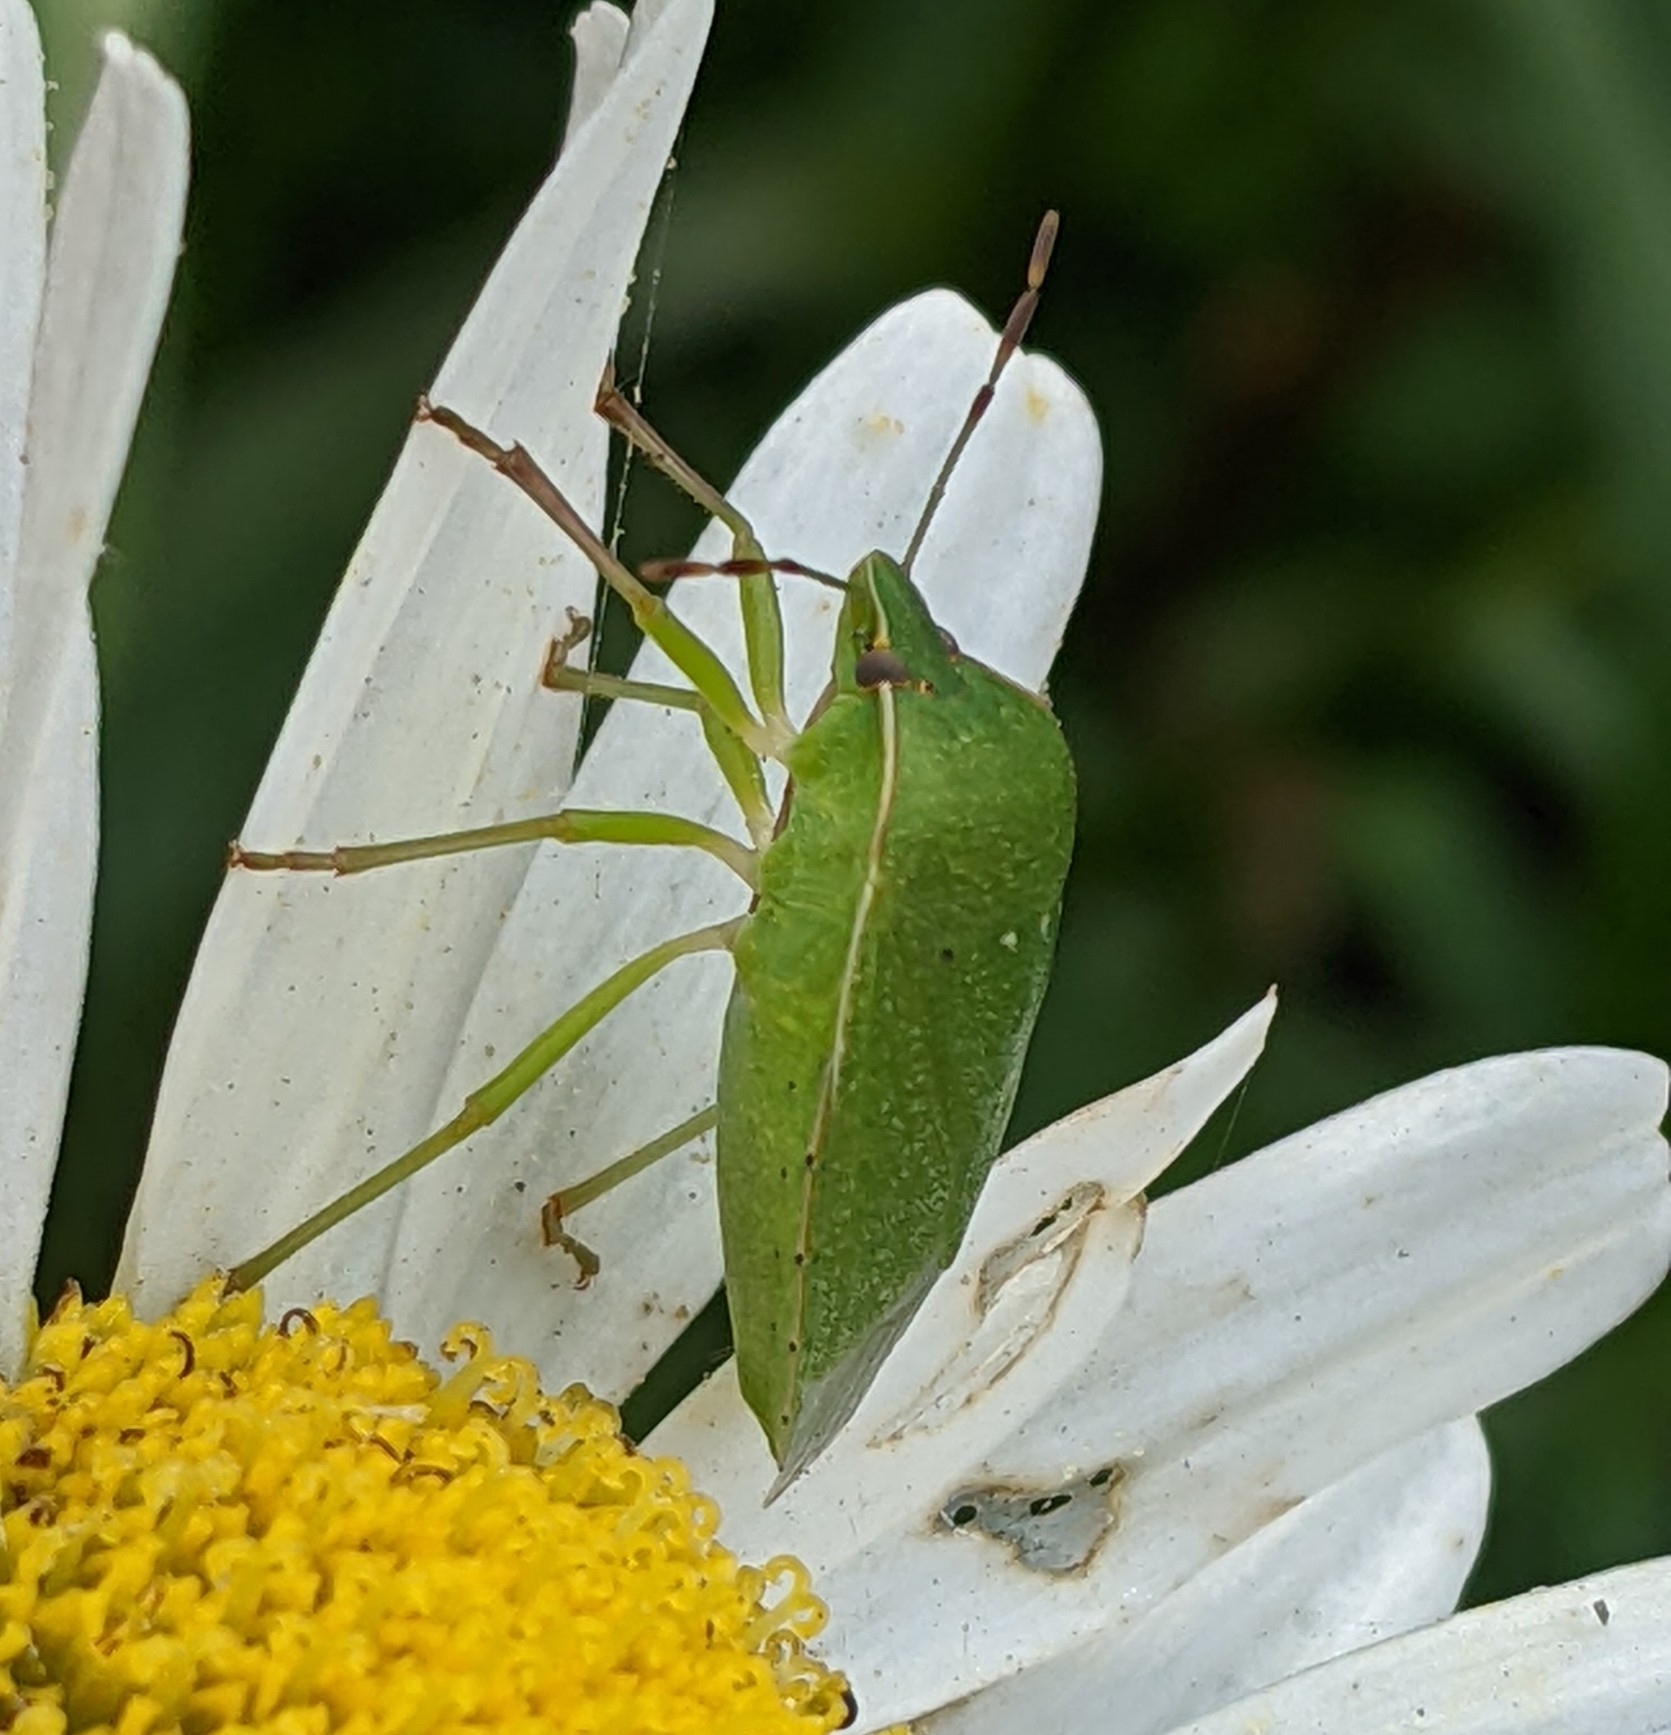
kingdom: Animalia
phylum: Arthropoda
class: Insecta
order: Hemiptera
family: Pentatomidae
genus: Nezara
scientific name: Nezara viridula
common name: Southern green stink bug
